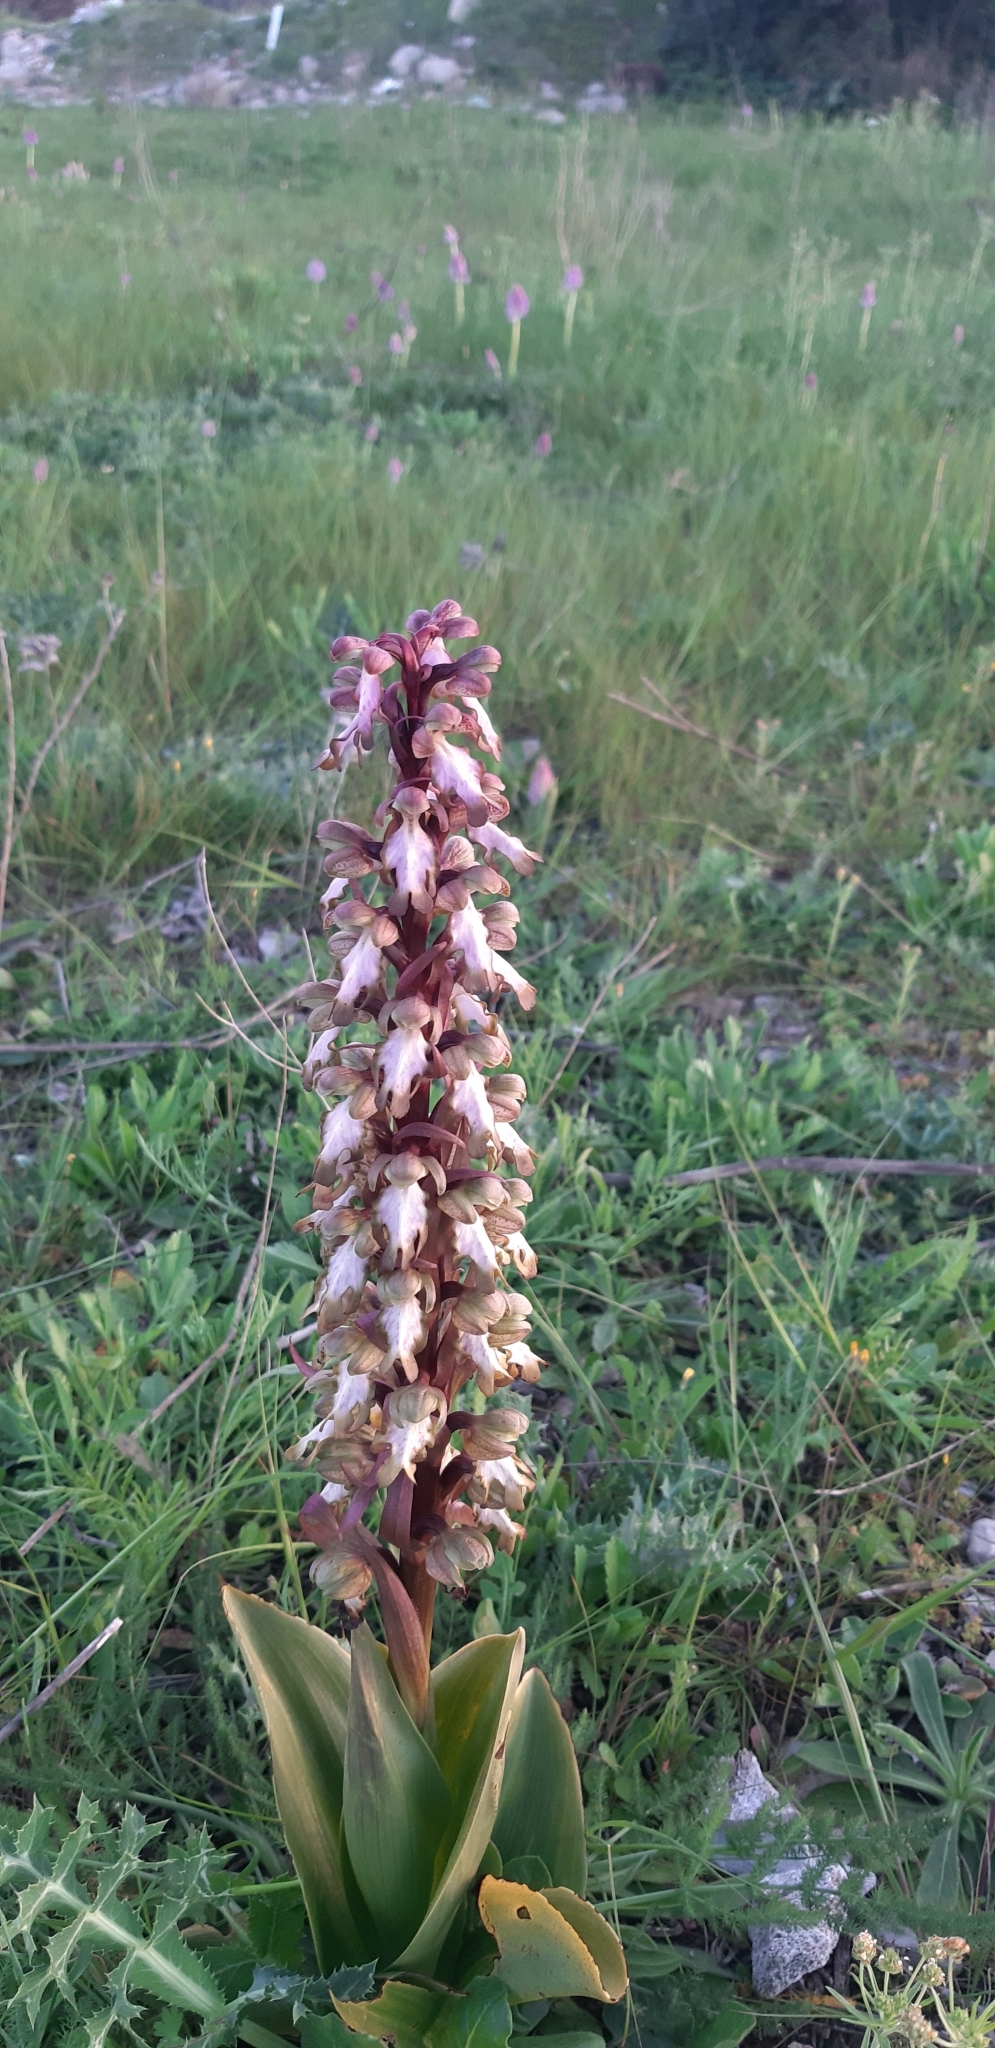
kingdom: Plantae
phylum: Tracheophyta
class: Liliopsida
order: Asparagales
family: Orchidaceae
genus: Himantoglossum
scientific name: Himantoglossum robertianum
